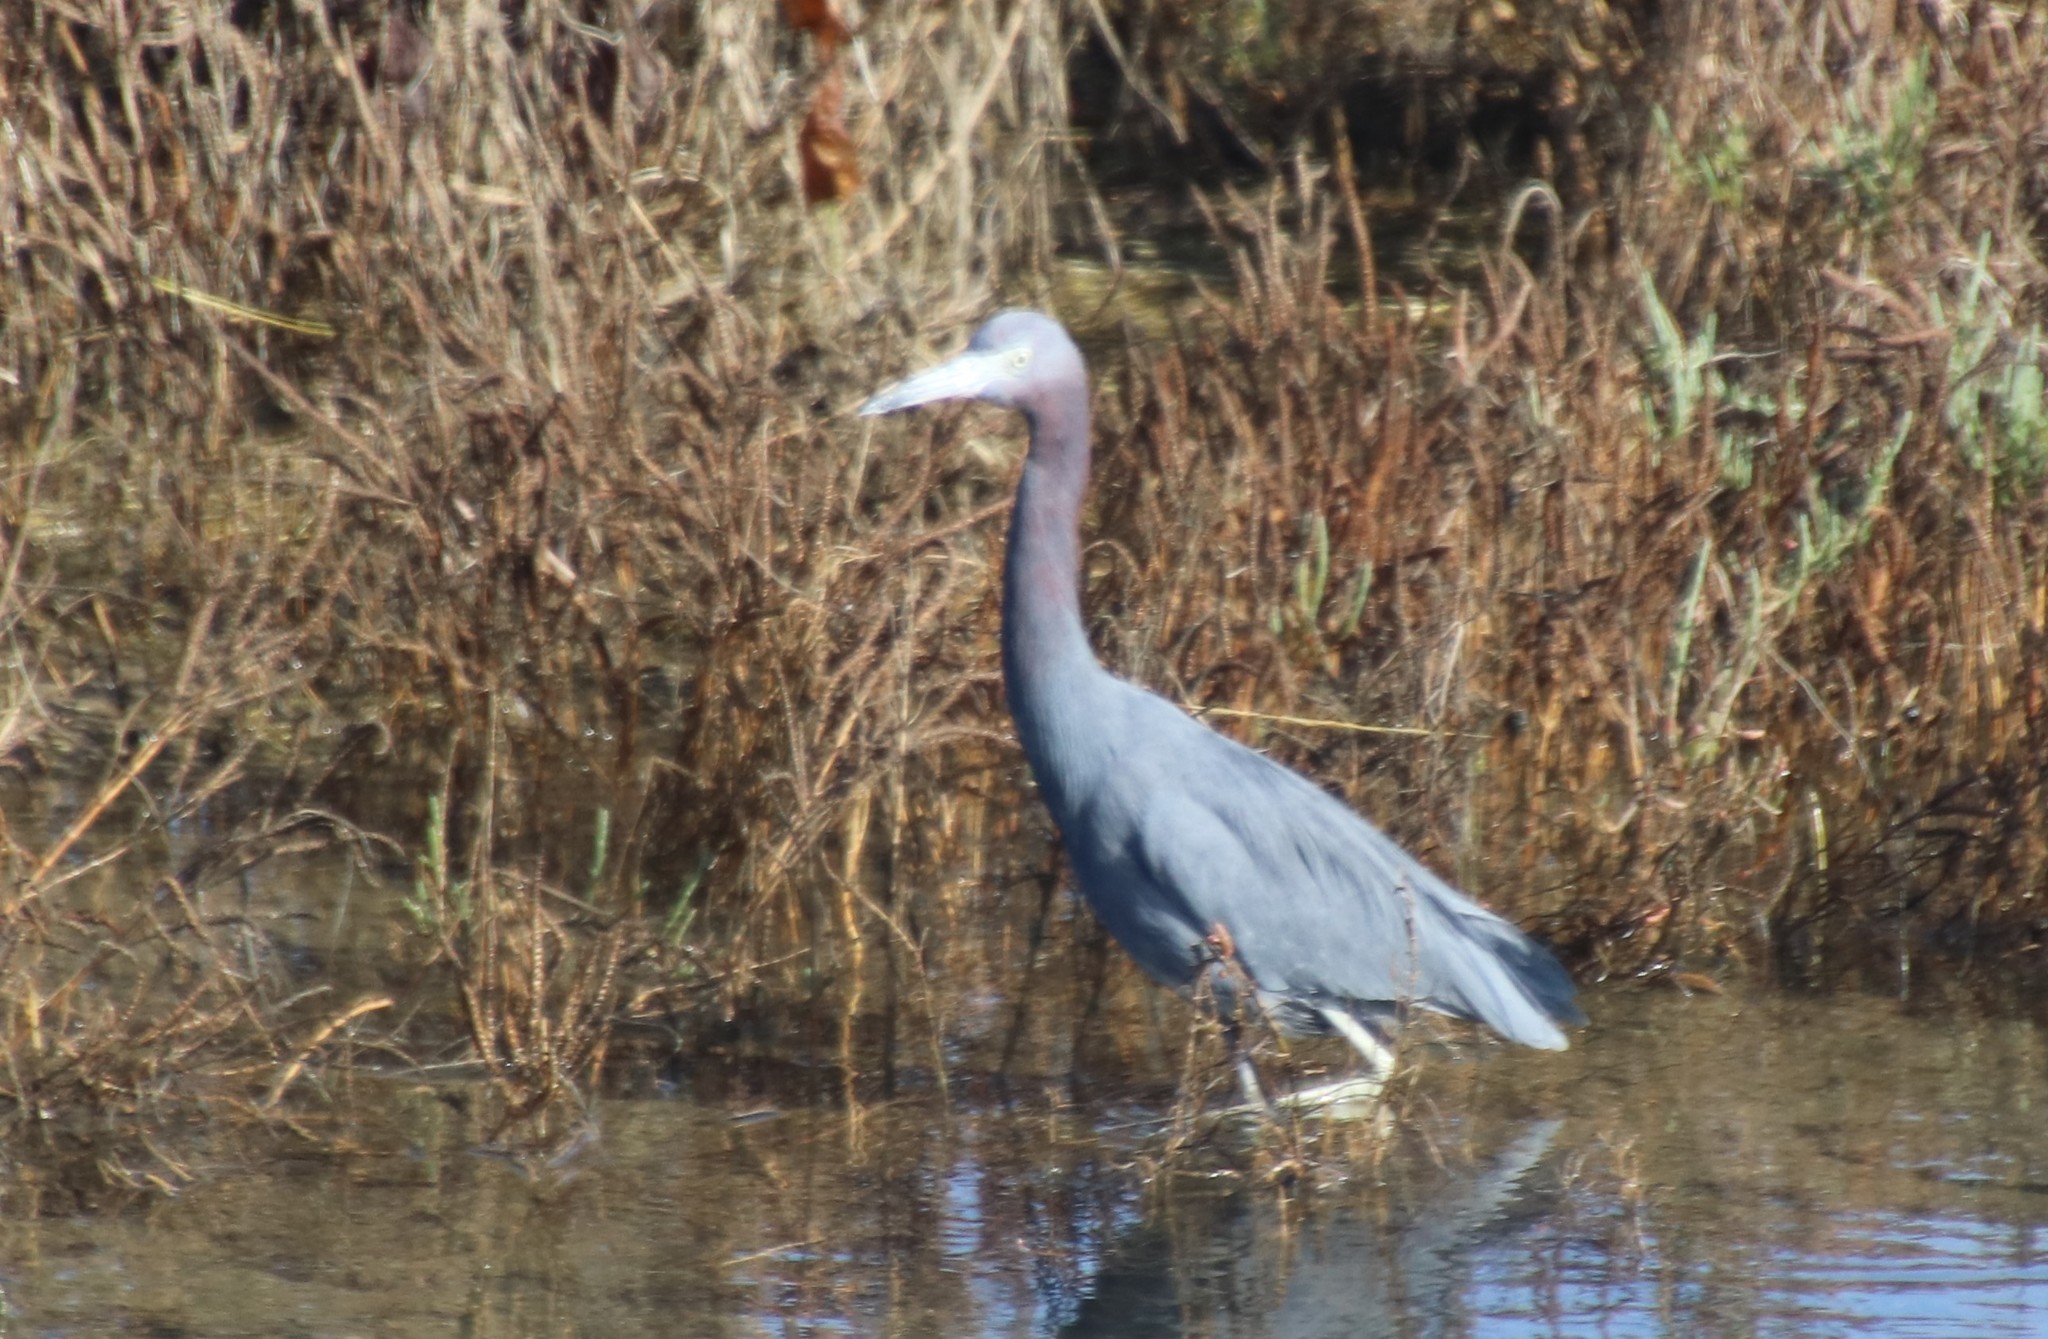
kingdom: Animalia
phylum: Chordata
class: Aves
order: Pelecaniformes
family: Ardeidae
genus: Egretta
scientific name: Egretta caerulea
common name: Little blue heron
